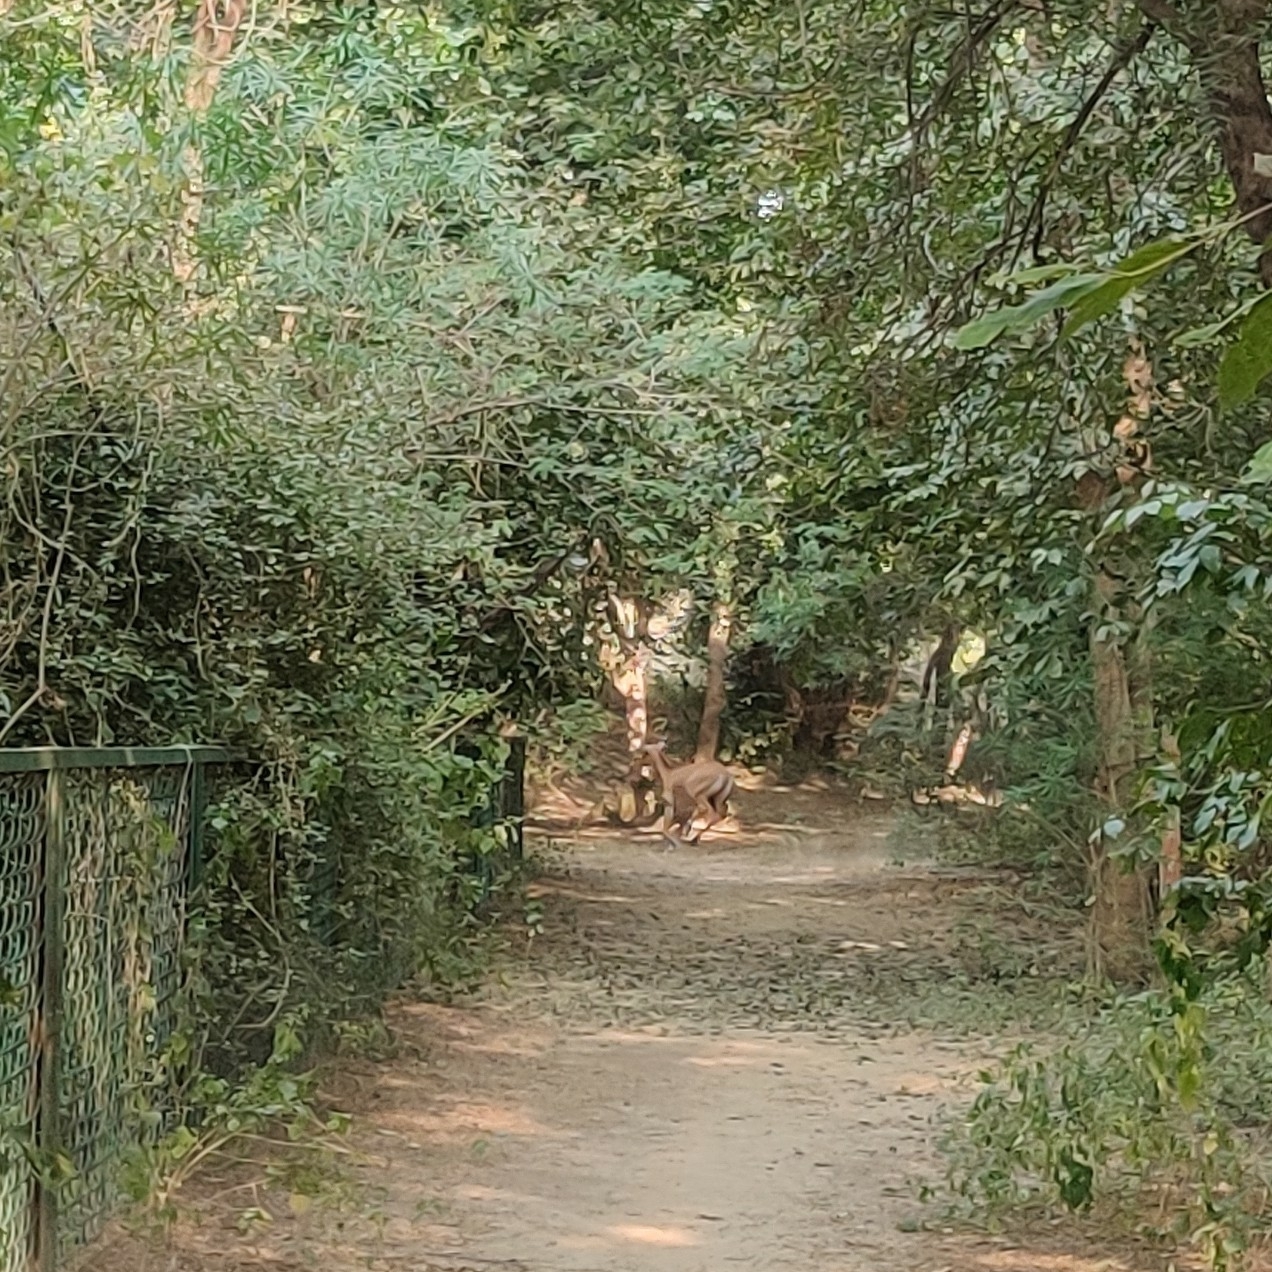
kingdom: Animalia
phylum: Chordata
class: Mammalia
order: Artiodactyla
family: Bovidae
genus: Boselaphus
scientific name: Boselaphus tragocamelus
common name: Nilgai
